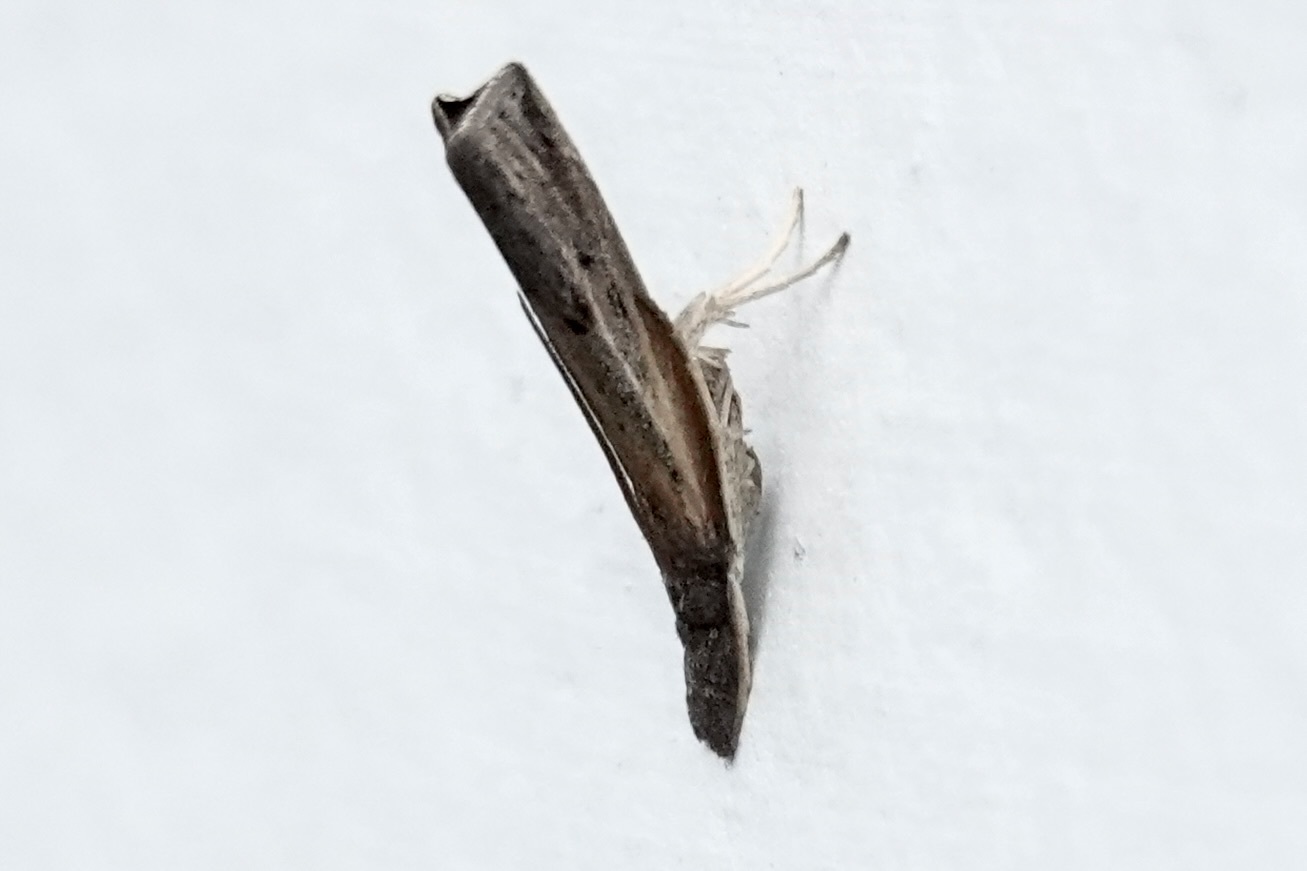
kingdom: Animalia
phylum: Arthropoda
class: Insecta
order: Lepidoptera
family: Crambidae
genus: Fissicrambus
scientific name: Fissicrambus mutabilis
